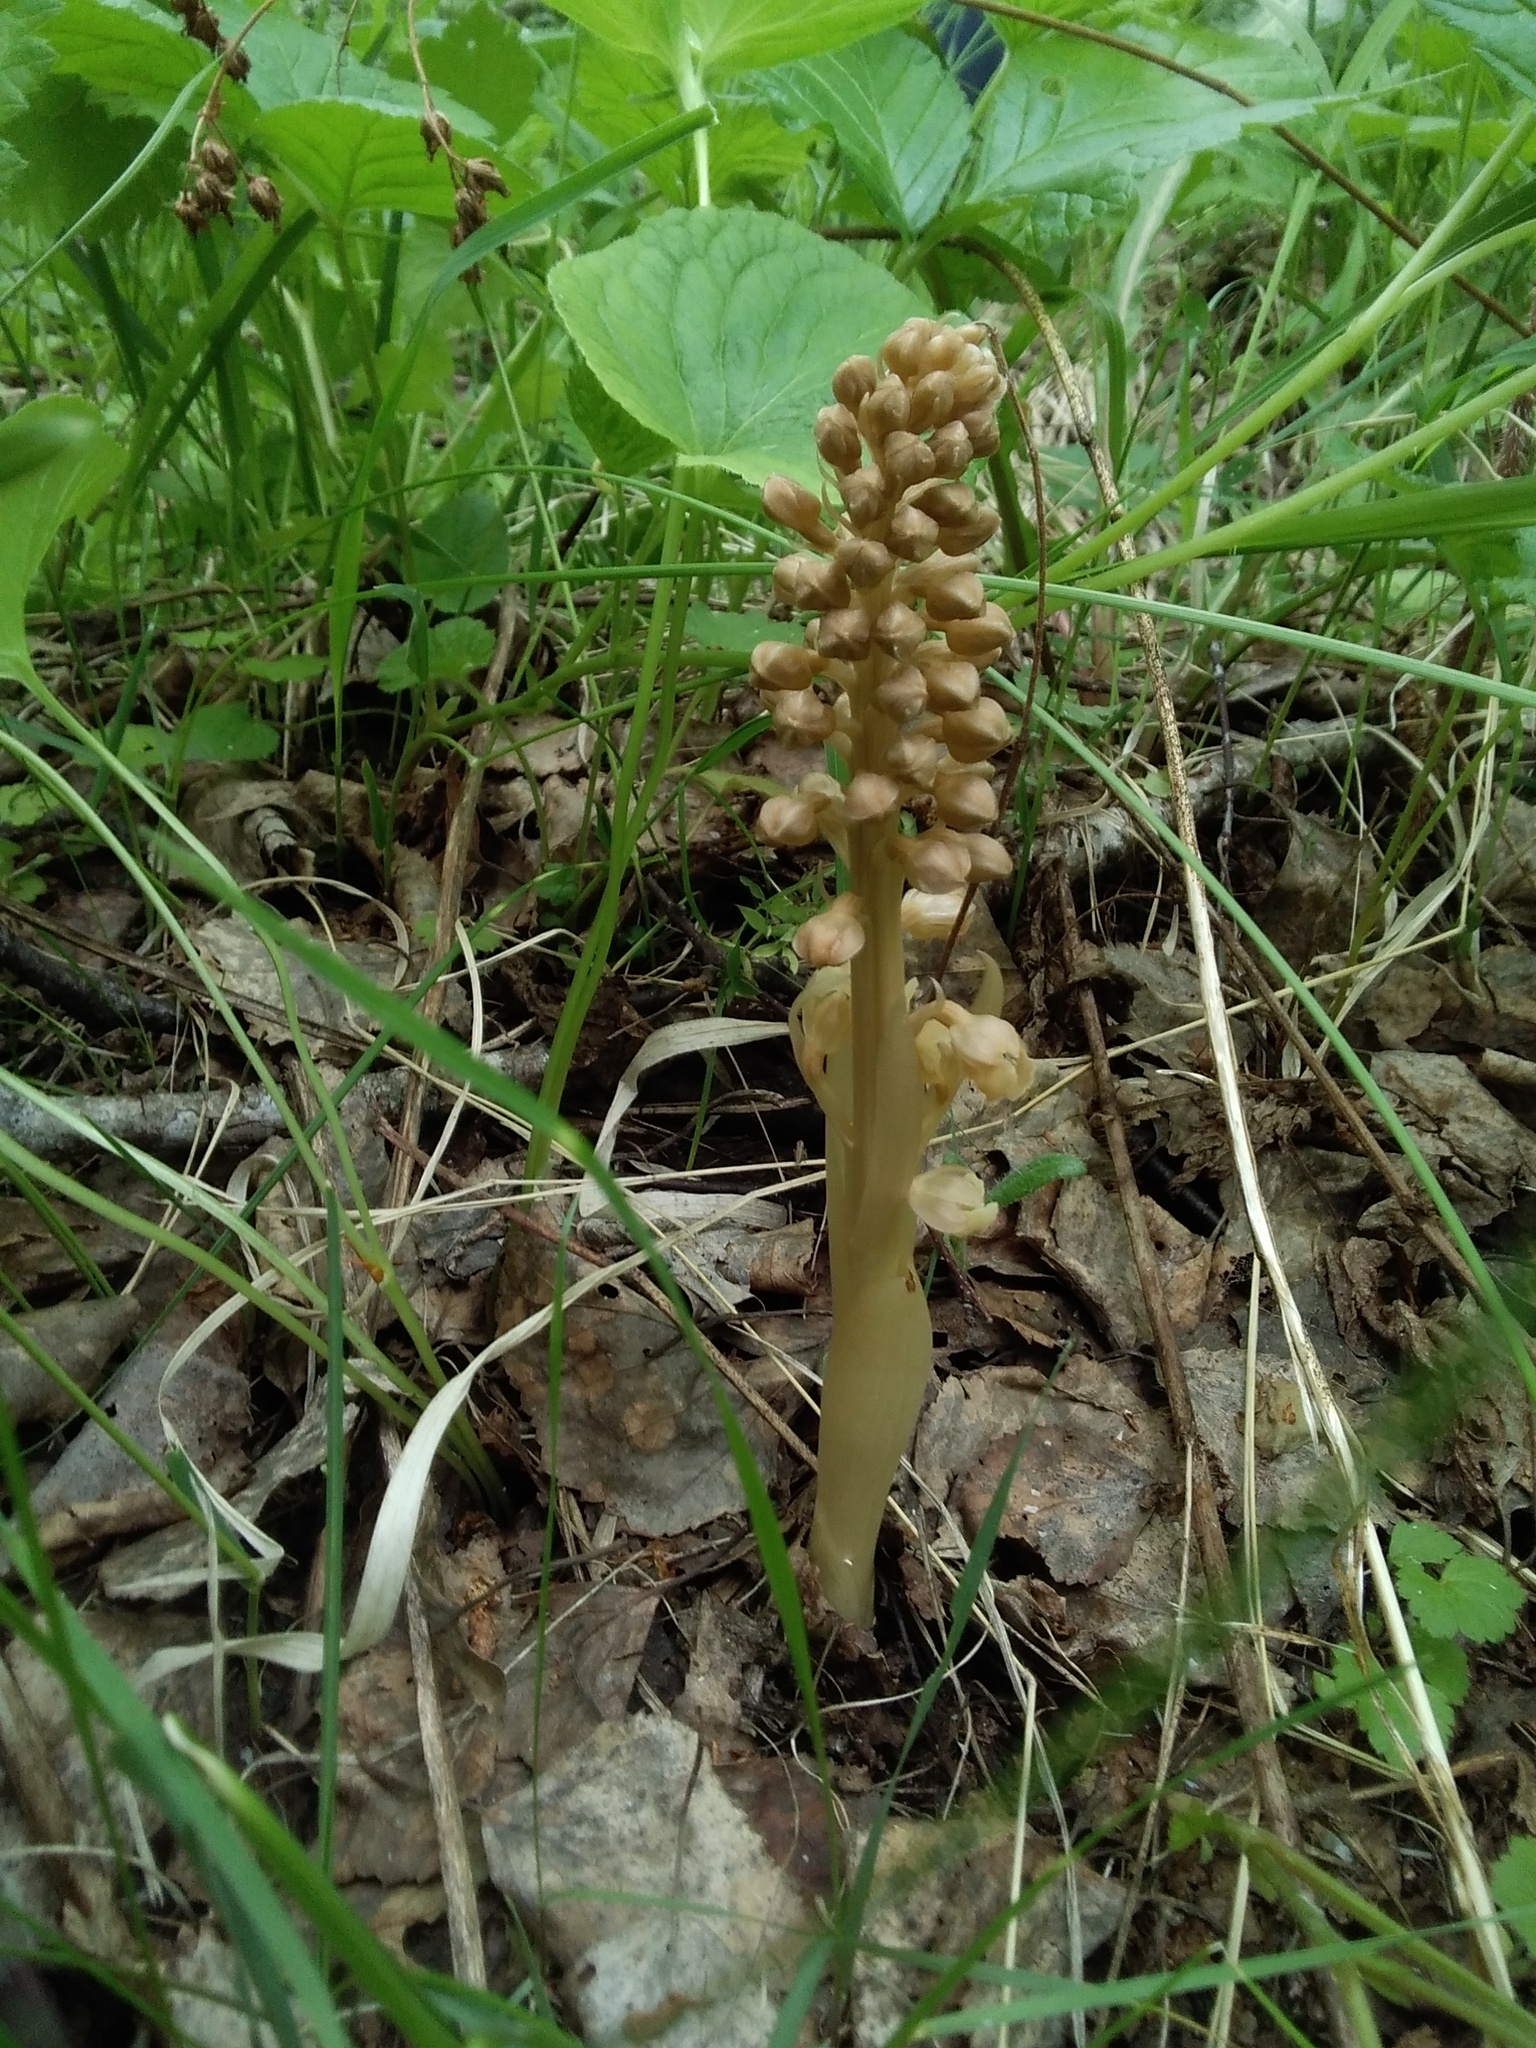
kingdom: Plantae
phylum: Tracheophyta
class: Liliopsida
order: Asparagales
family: Orchidaceae
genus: Neottia
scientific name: Neottia nidus-avis
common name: Bird's-nest orchid
